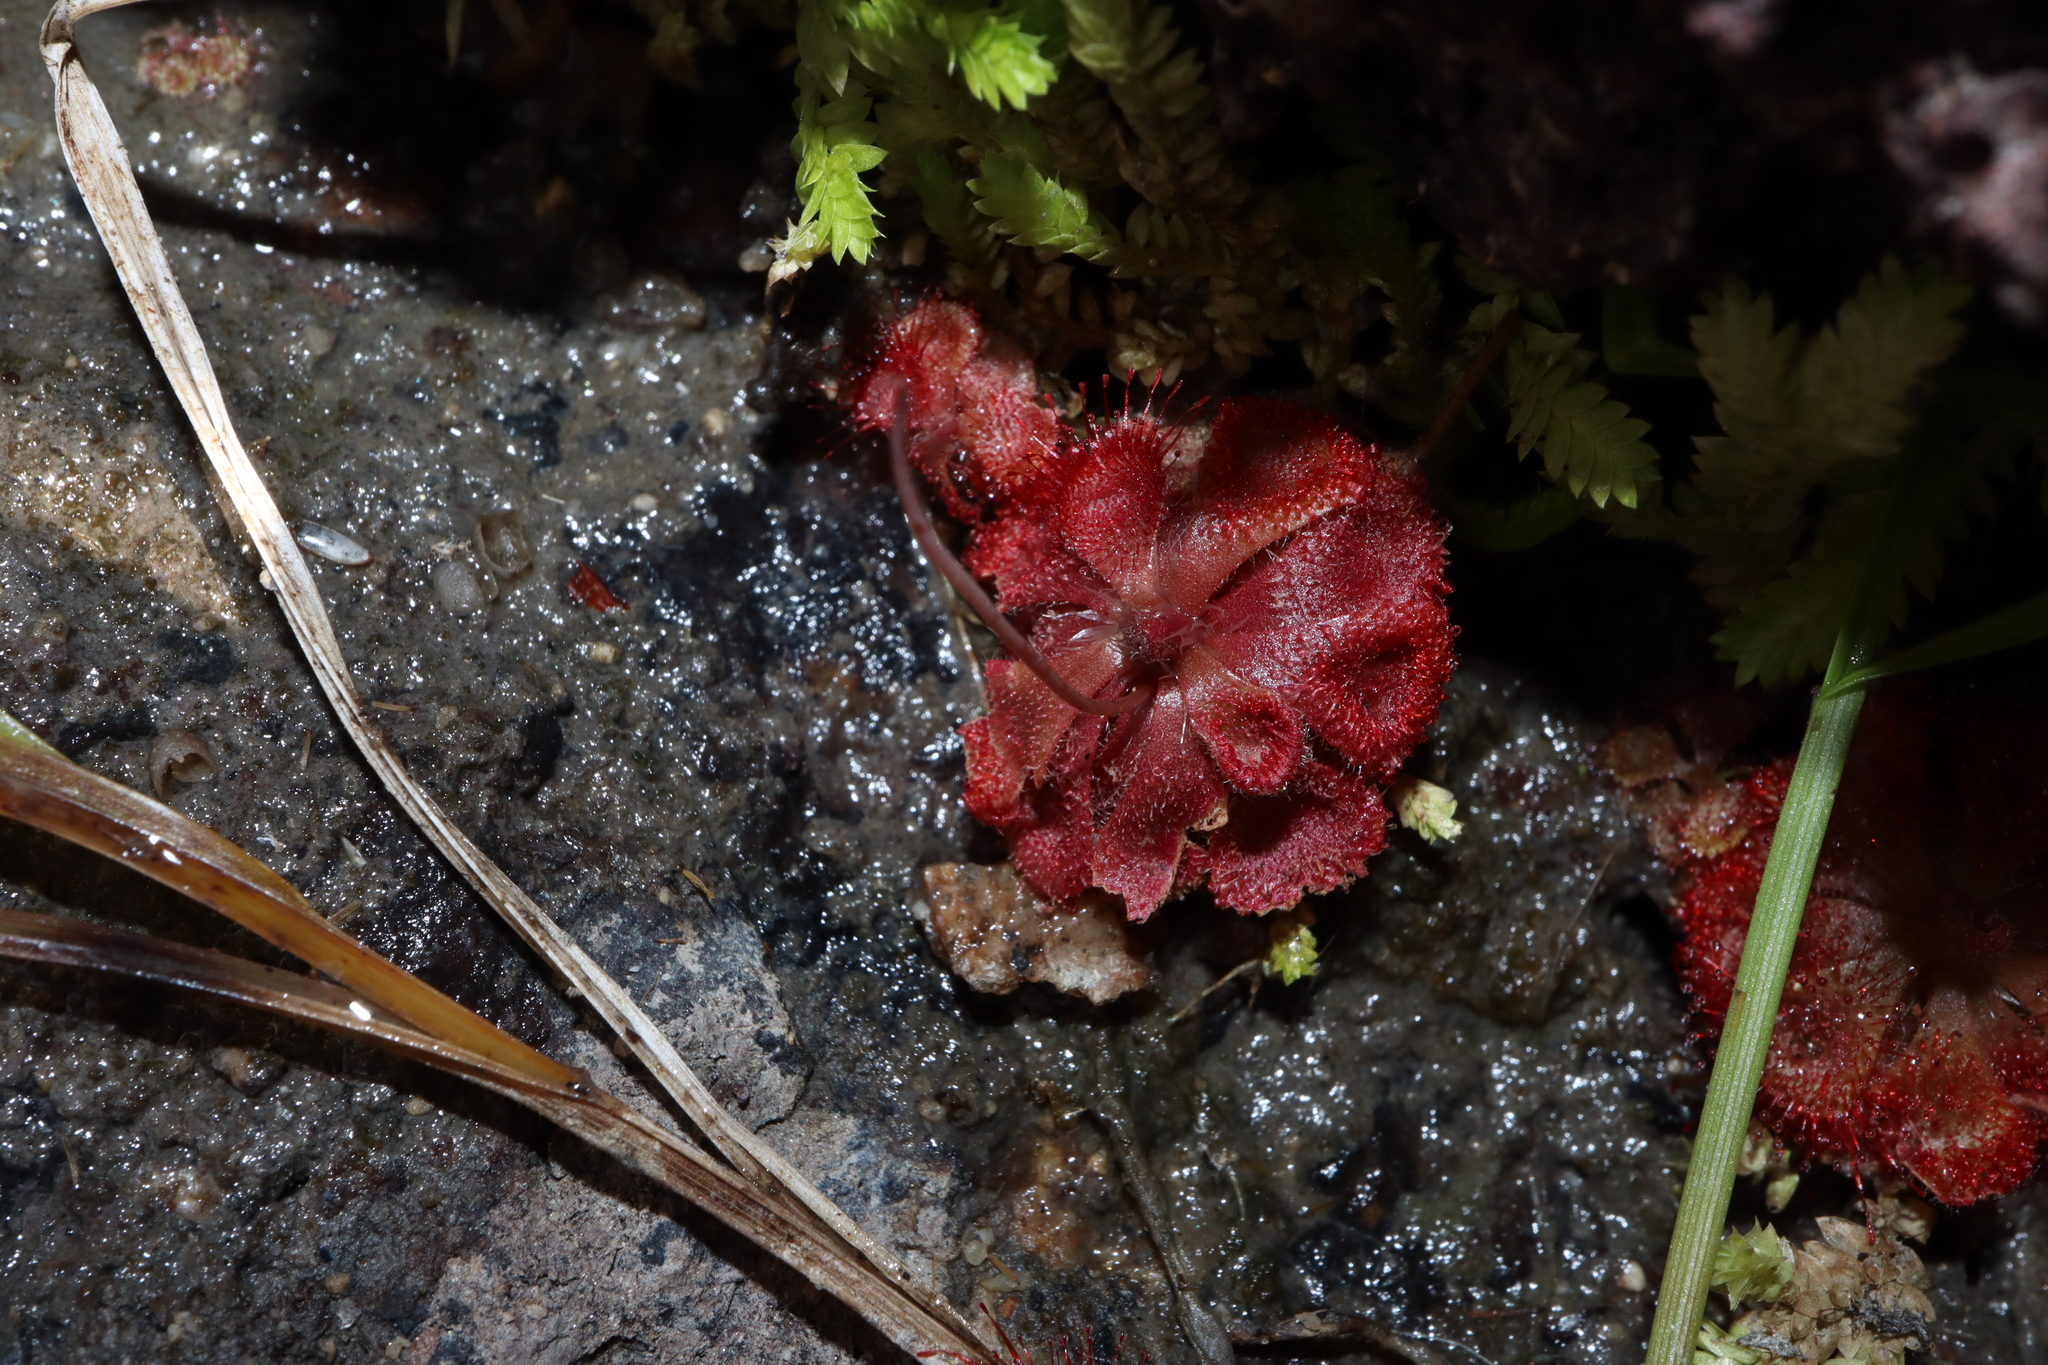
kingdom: Plantae
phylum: Tracheophyta
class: Magnoliopsida
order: Caryophyllales
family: Droseraceae
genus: Drosera
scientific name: Drosera spatulata
